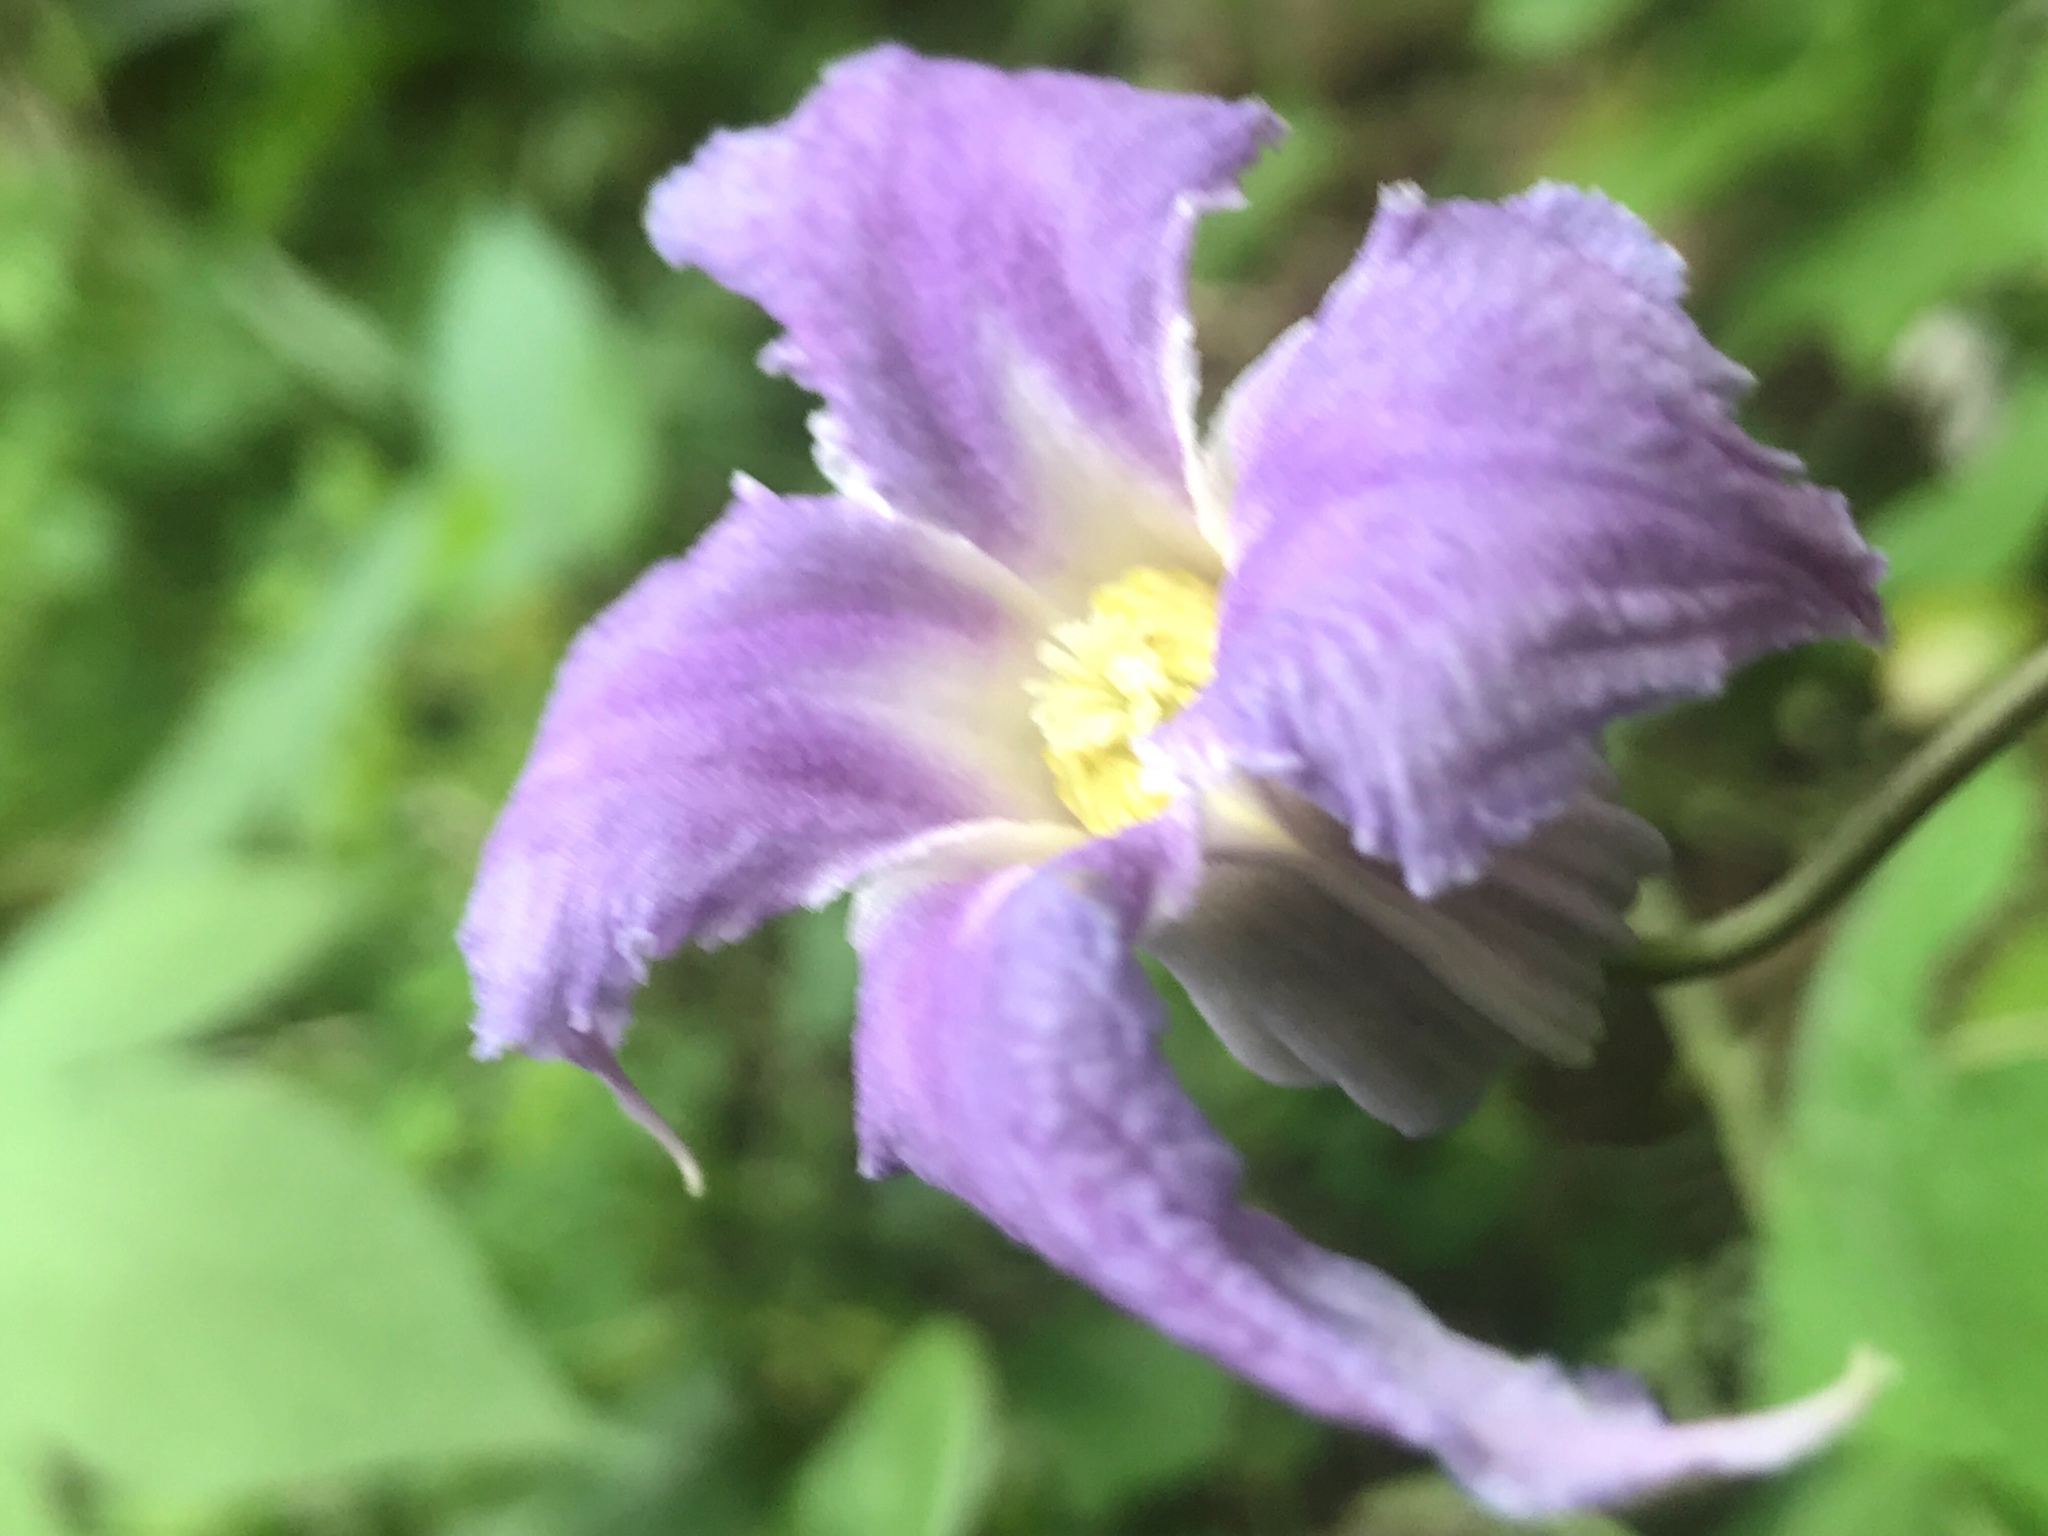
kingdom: Plantae
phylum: Tracheophyta
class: Magnoliopsida
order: Ranunculales
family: Ranunculaceae
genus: Clematis
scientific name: Clematis crispa
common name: Curly clematis
